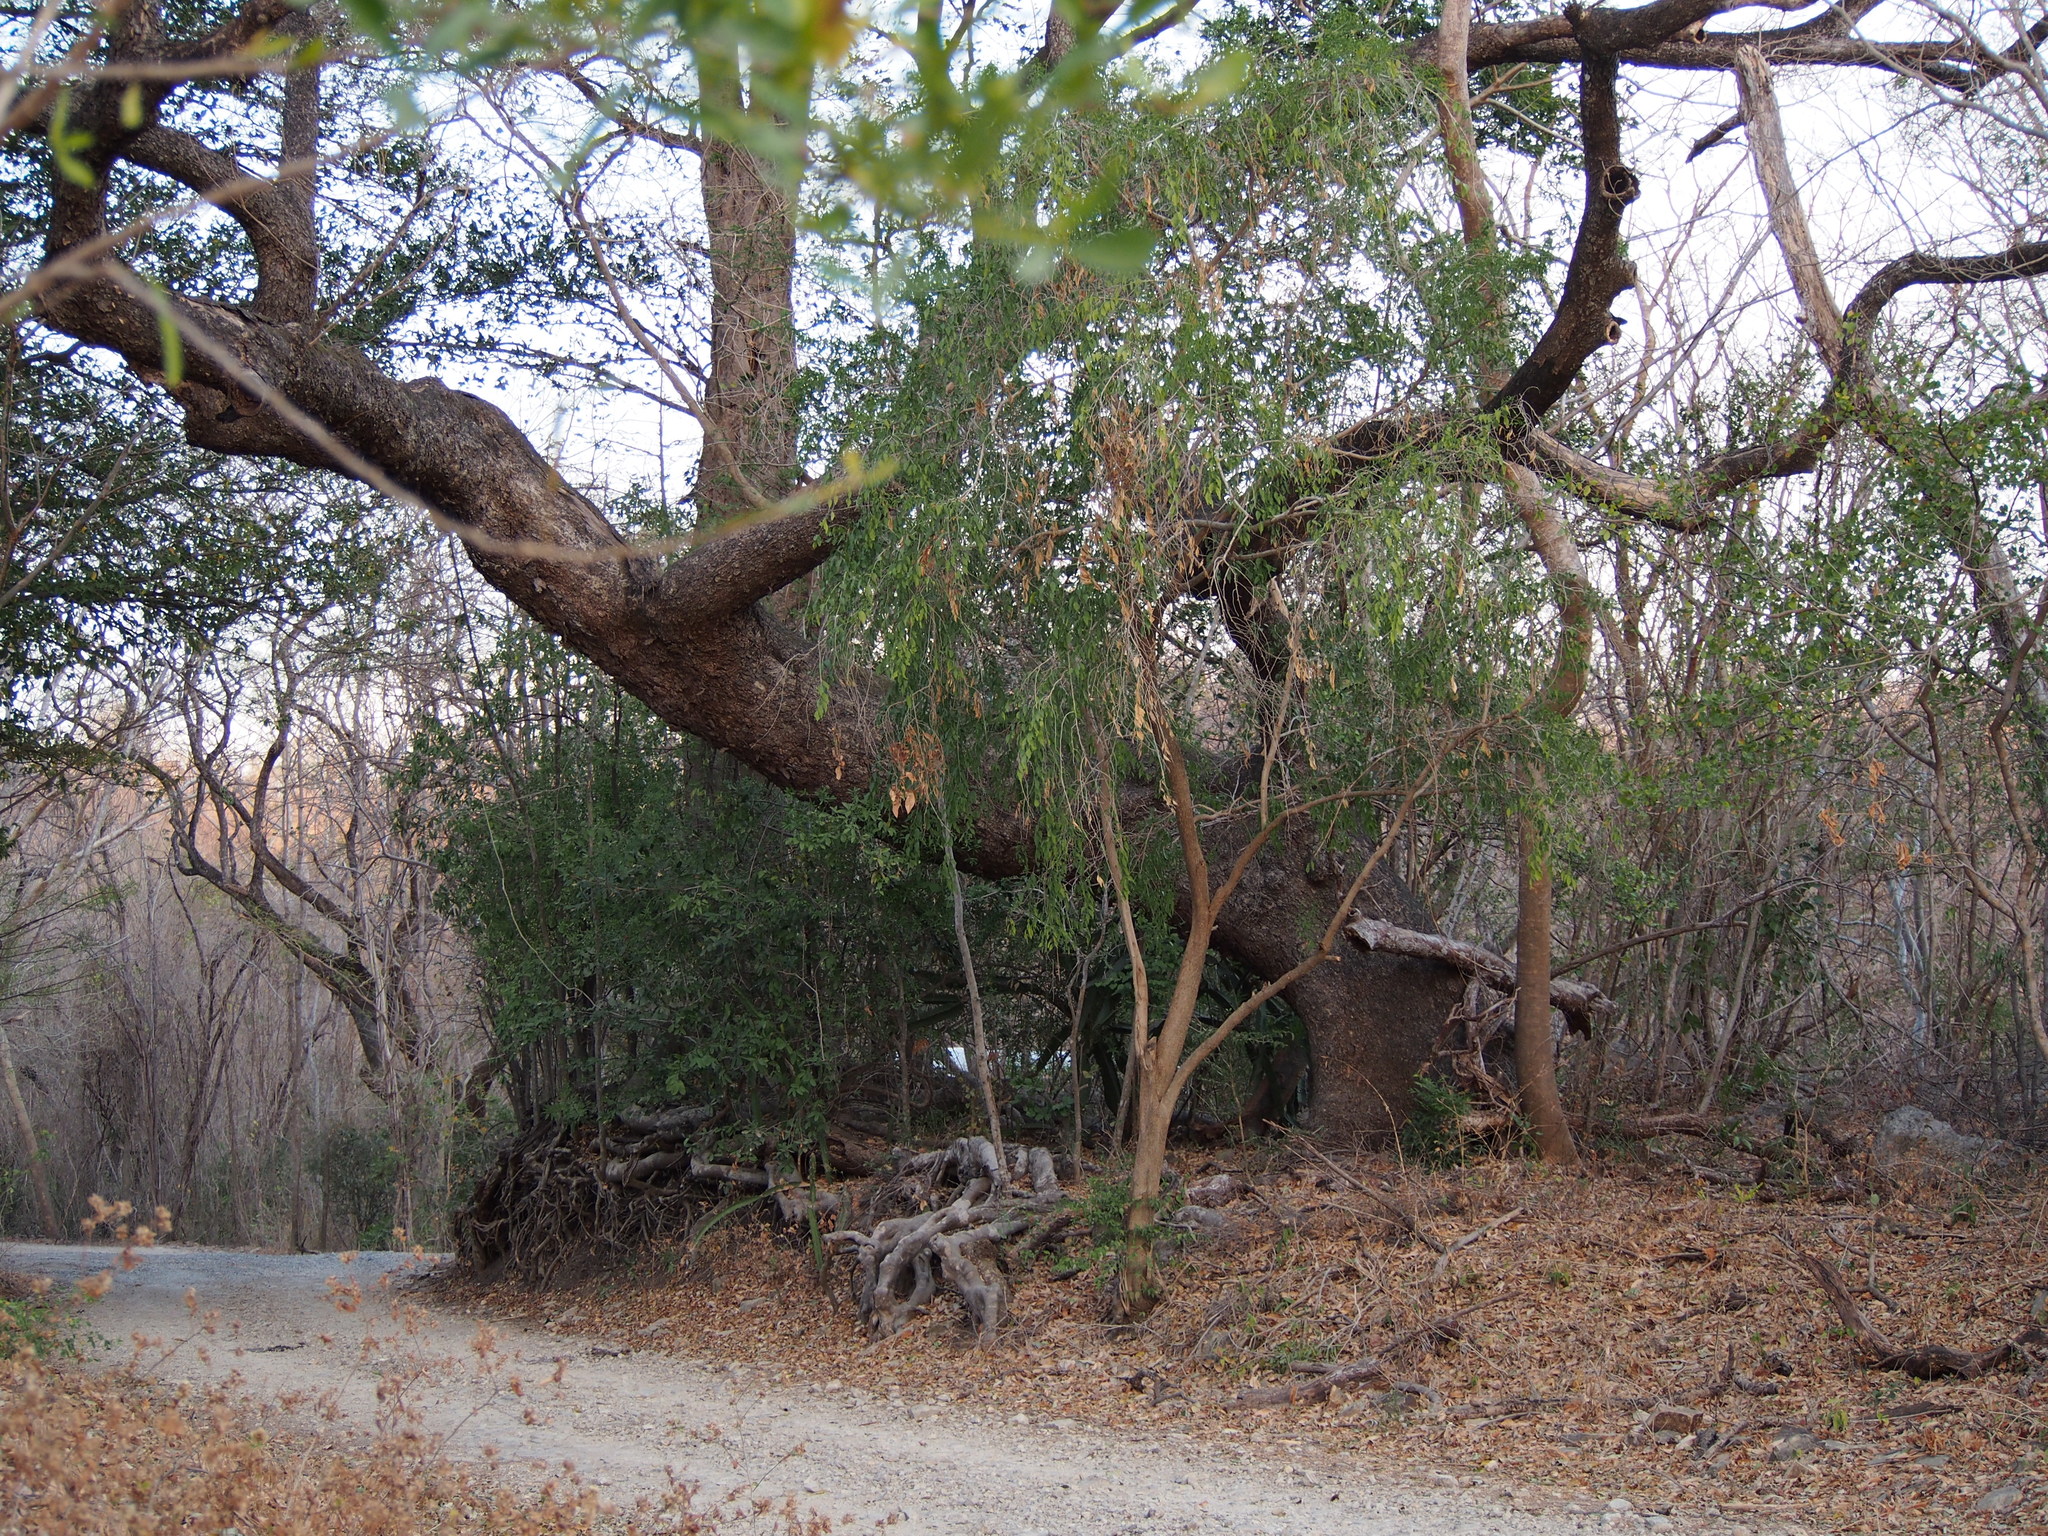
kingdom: Plantae
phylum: Tracheophyta
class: Magnoliopsida
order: Sapindales
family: Burseraceae
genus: Bursera
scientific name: Bursera simaruba
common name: Turpentine tree
